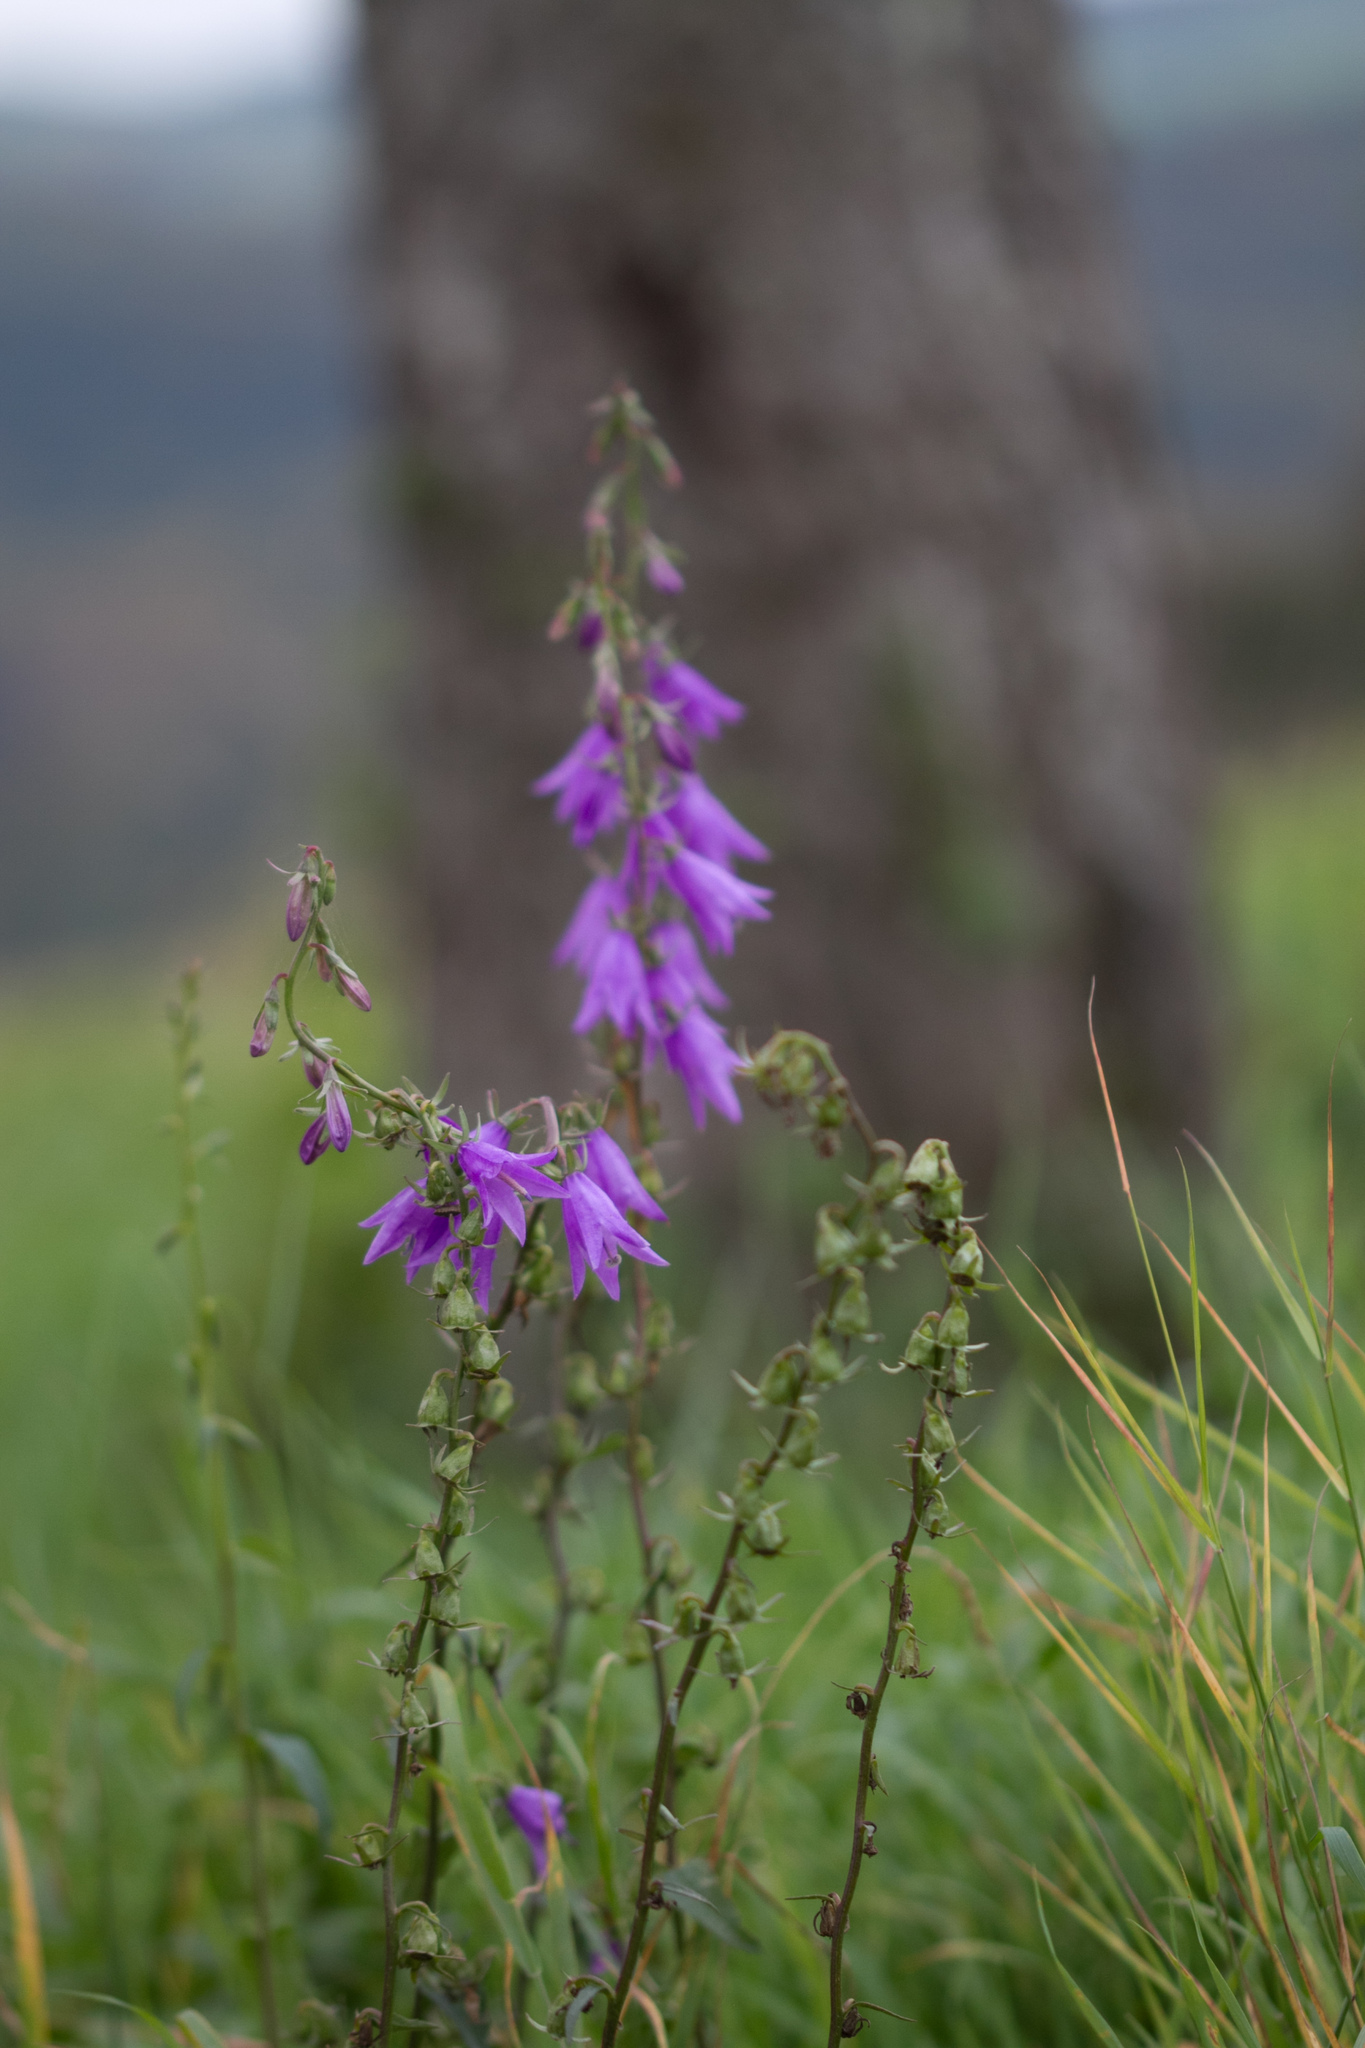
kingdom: Plantae
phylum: Tracheophyta
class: Magnoliopsida
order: Asterales
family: Campanulaceae
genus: Campanula
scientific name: Campanula rapunculoides
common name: Creeping bellflower
